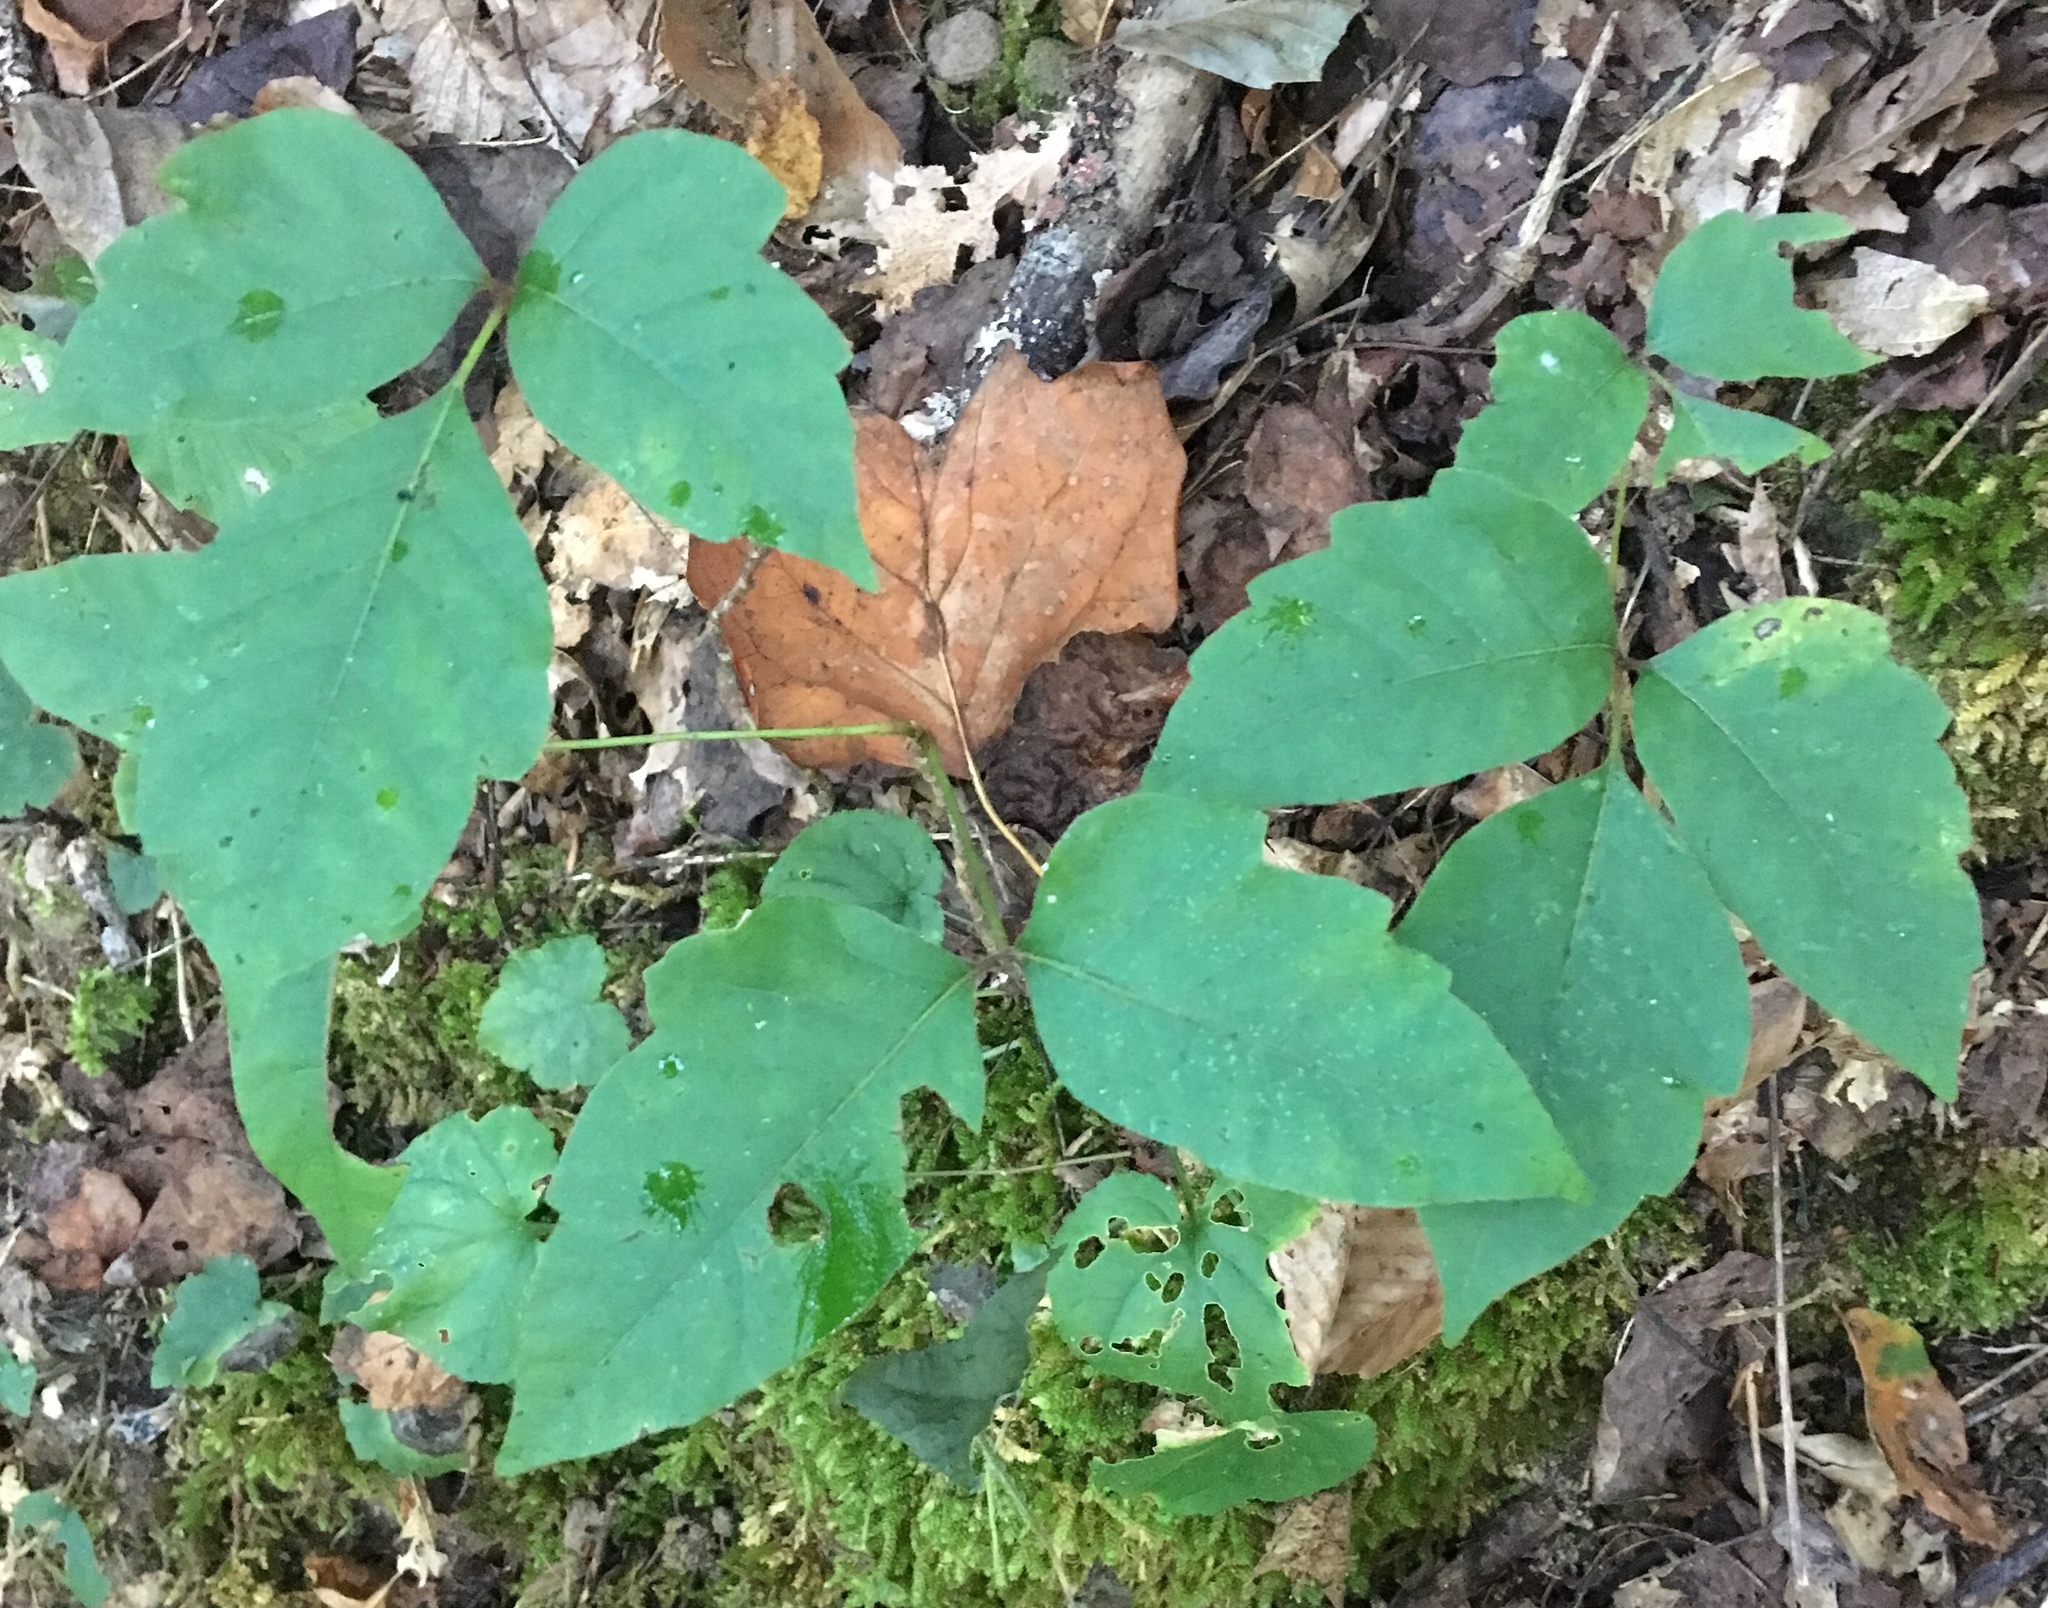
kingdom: Plantae
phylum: Tracheophyta
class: Magnoliopsida
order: Sapindales
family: Anacardiaceae
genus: Toxicodendron
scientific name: Toxicodendron radicans
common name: Poison ivy
